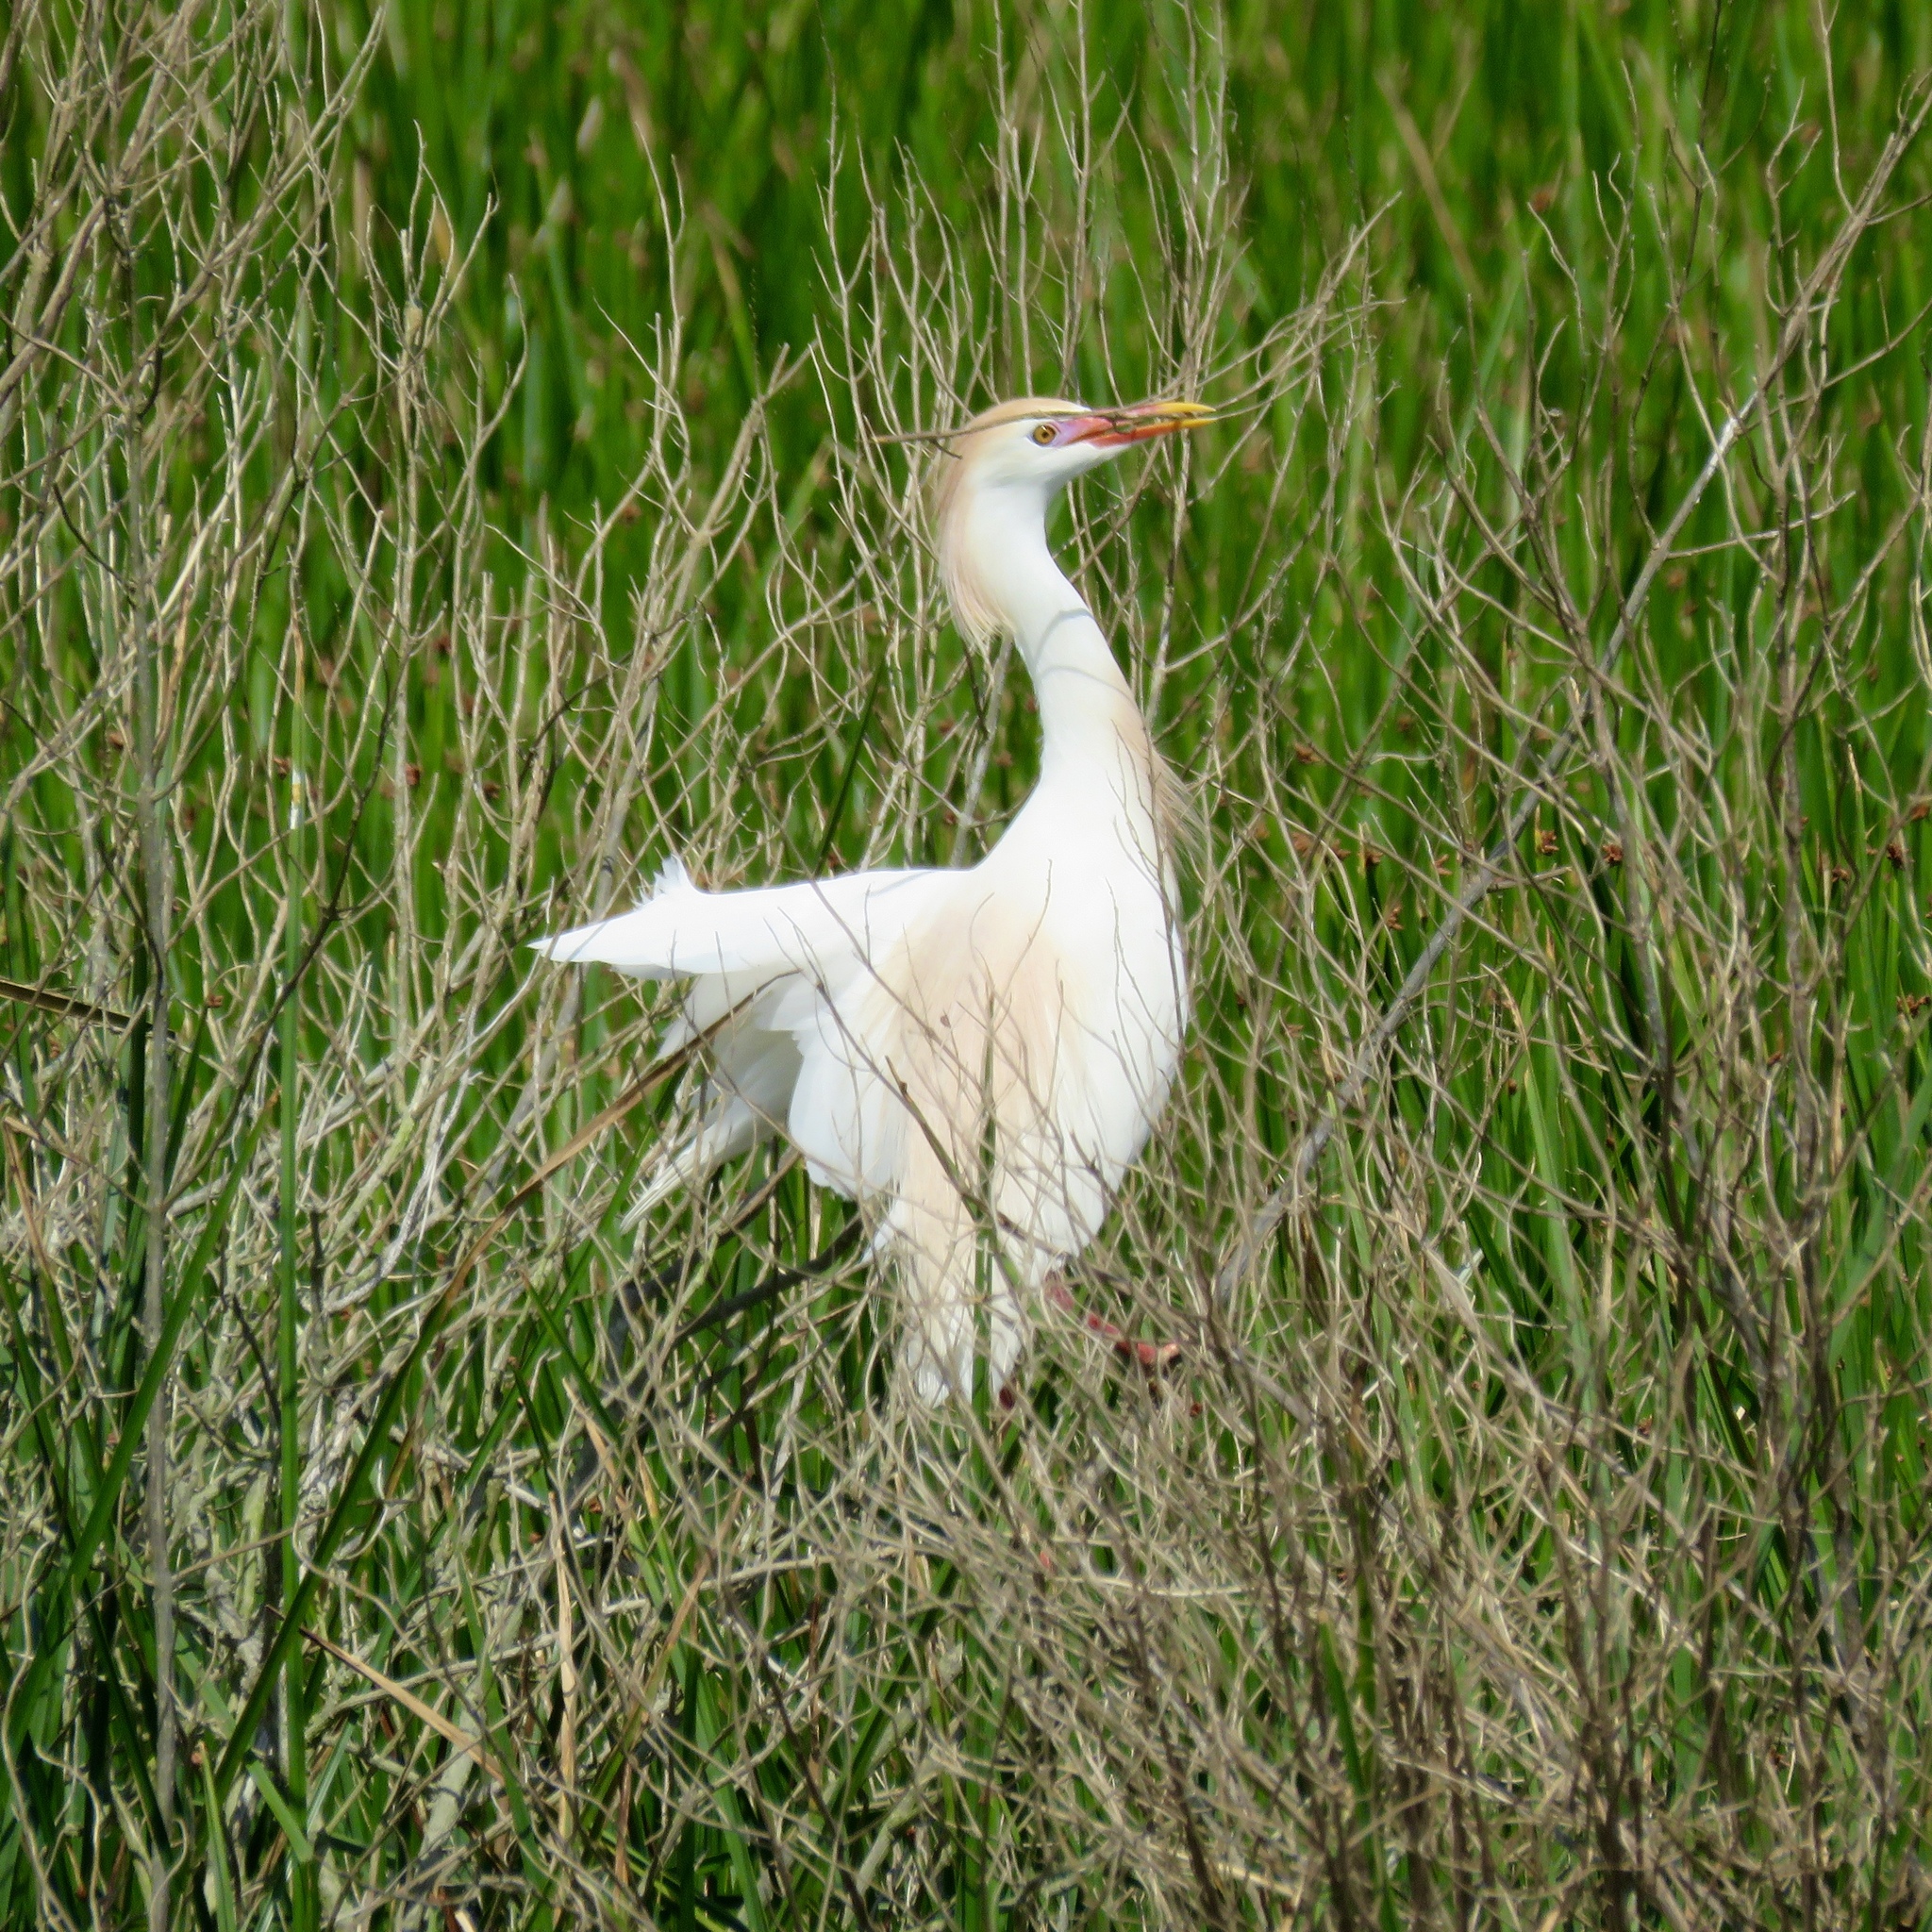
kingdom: Animalia
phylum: Chordata
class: Aves
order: Pelecaniformes
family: Ardeidae
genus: Bubulcus
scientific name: Bubulcus ibis
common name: Cattle egret
